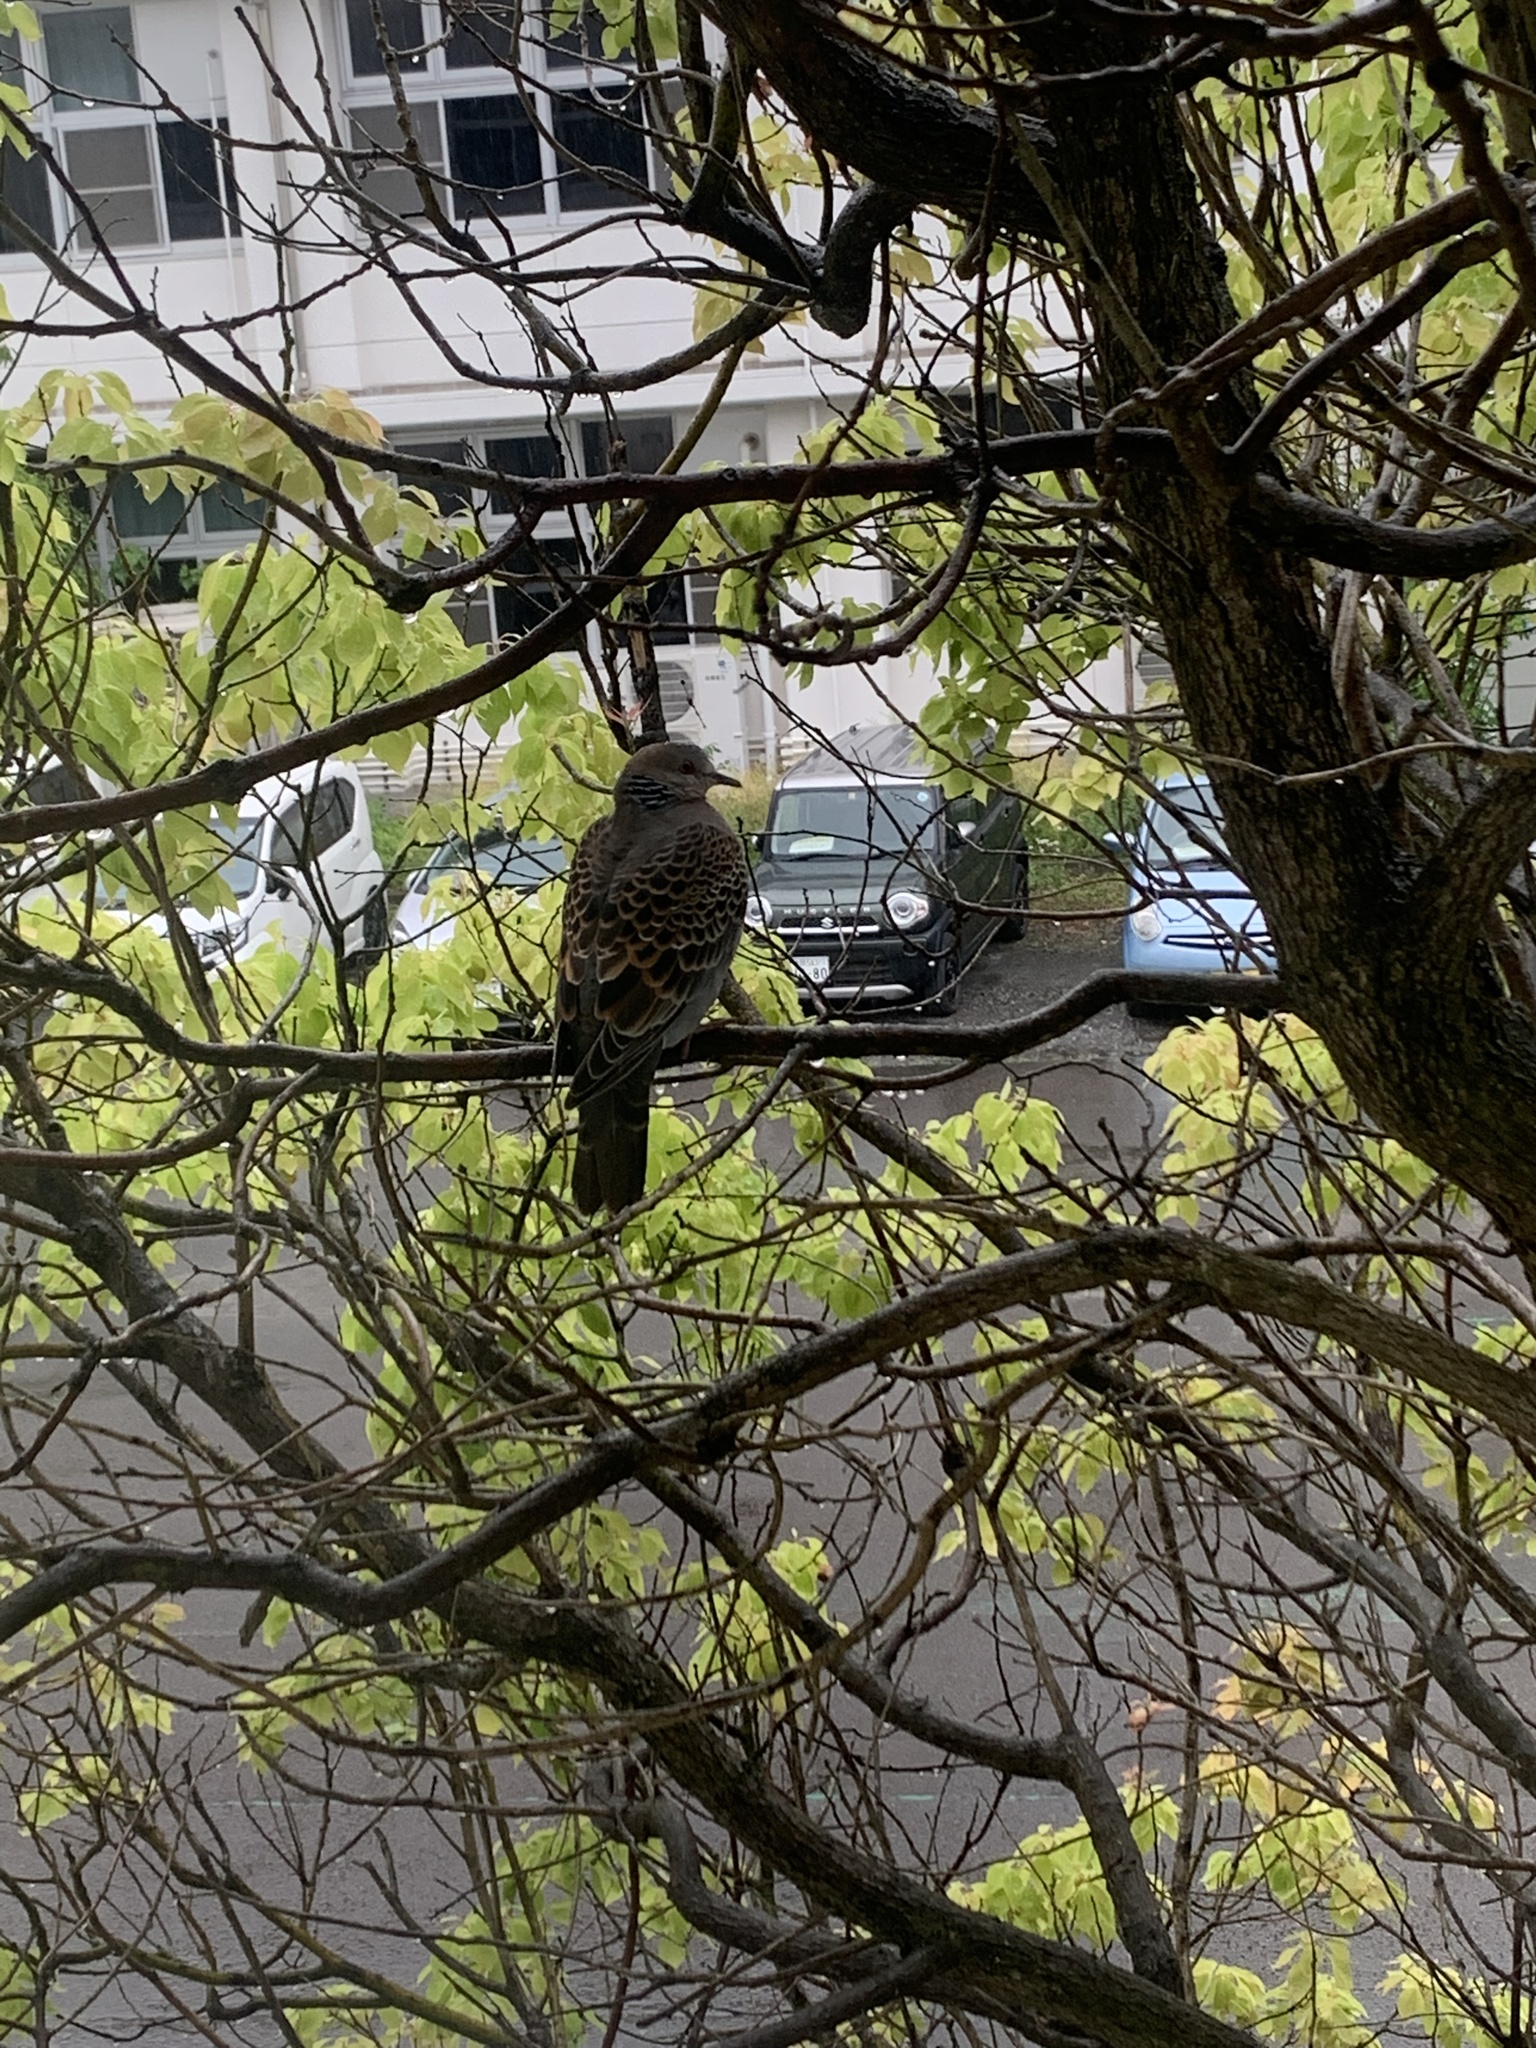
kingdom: Animalia
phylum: Chordata
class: Aves
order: Columbiformes
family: Columbidae
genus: Streptopelia
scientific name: Streptopelia orientalis
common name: Oriental turtle dove
